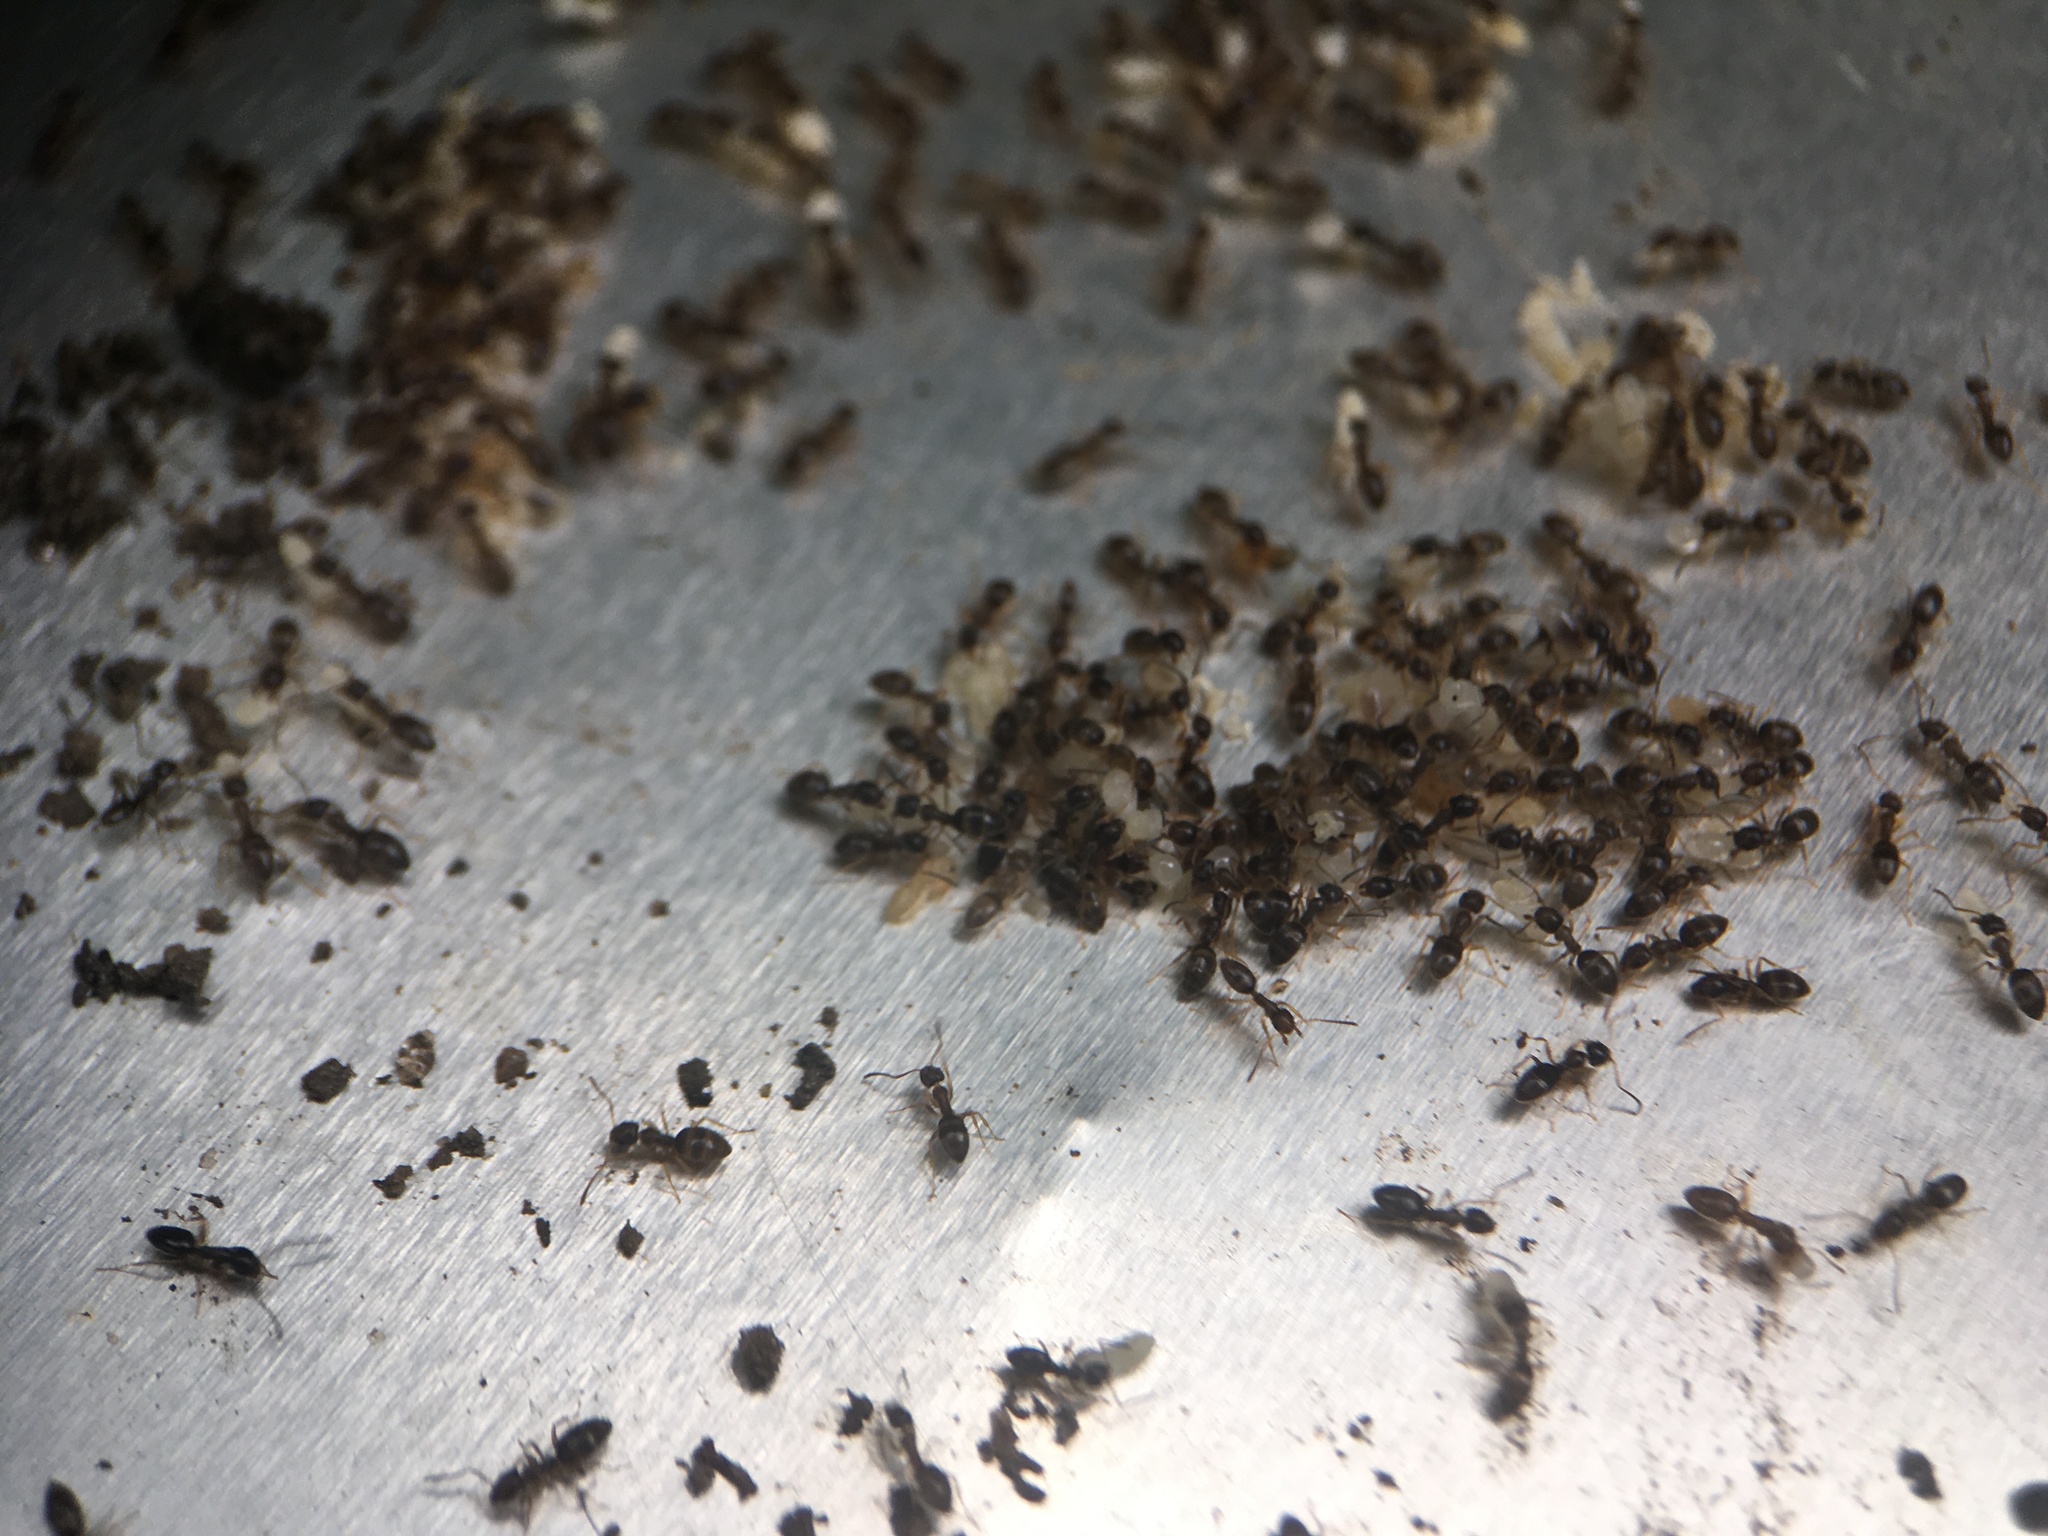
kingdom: Animalia
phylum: Arthropoda
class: Insecta
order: Hymenoptera
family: Formicidae
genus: Tapinoma
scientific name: Tapinoma sessile
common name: Odorous house ant
